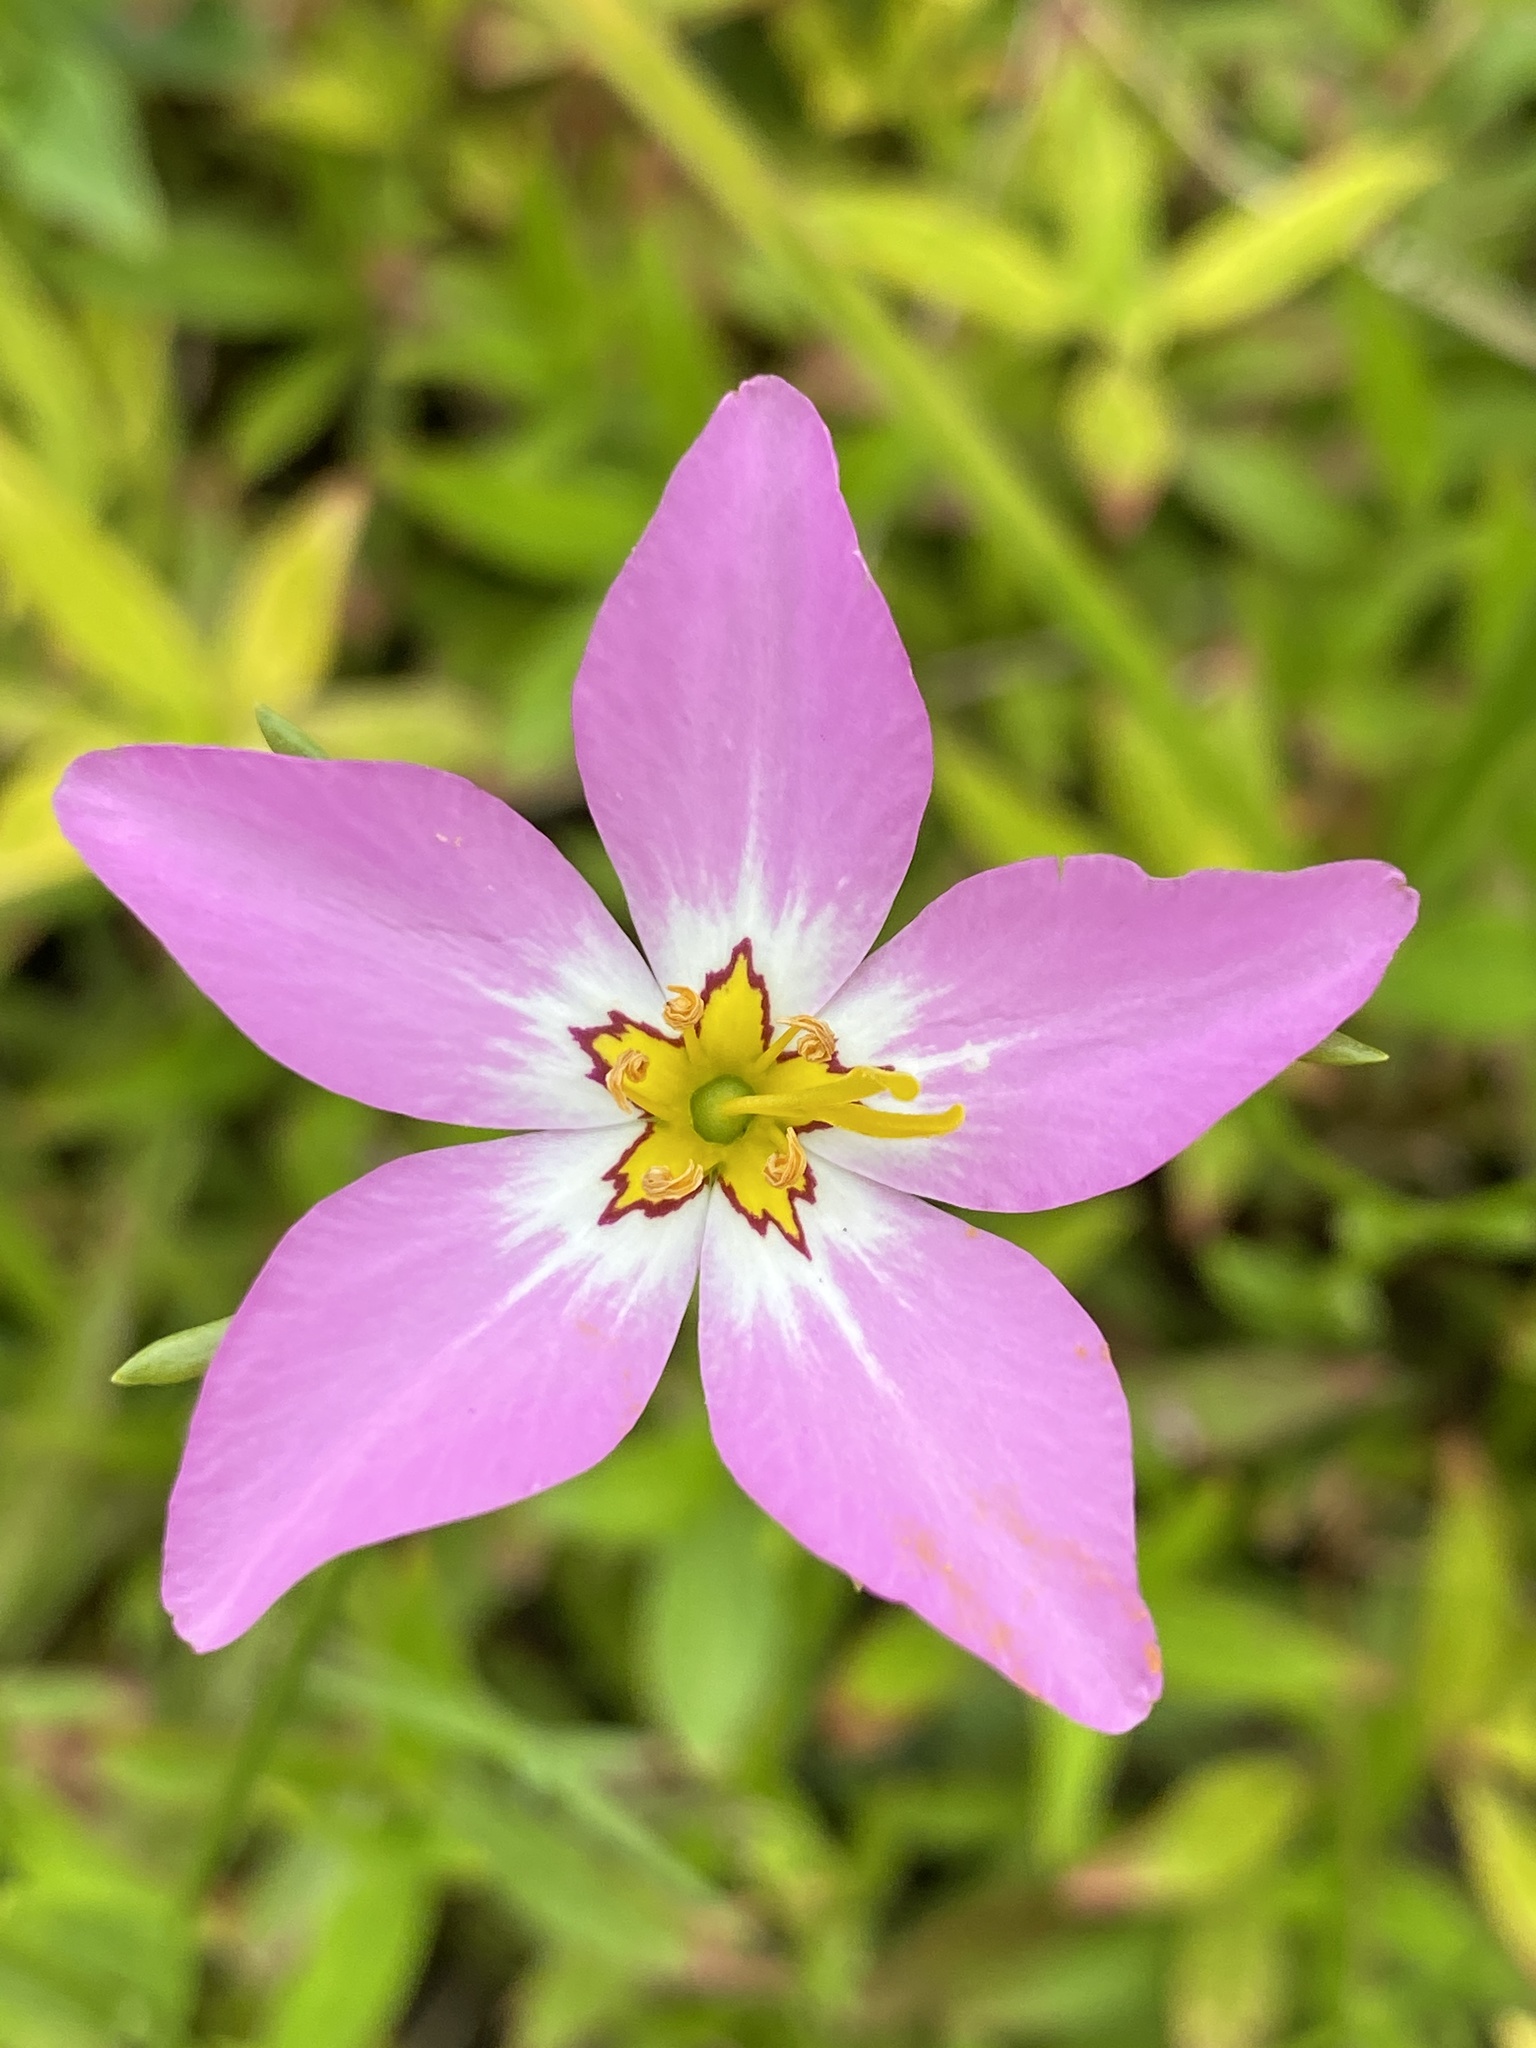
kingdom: Plantae
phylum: Tracheophyta
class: Magnoliopsida
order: Gentianales
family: Gentianaceae
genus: Sabatia
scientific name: Sabatia stellaris
